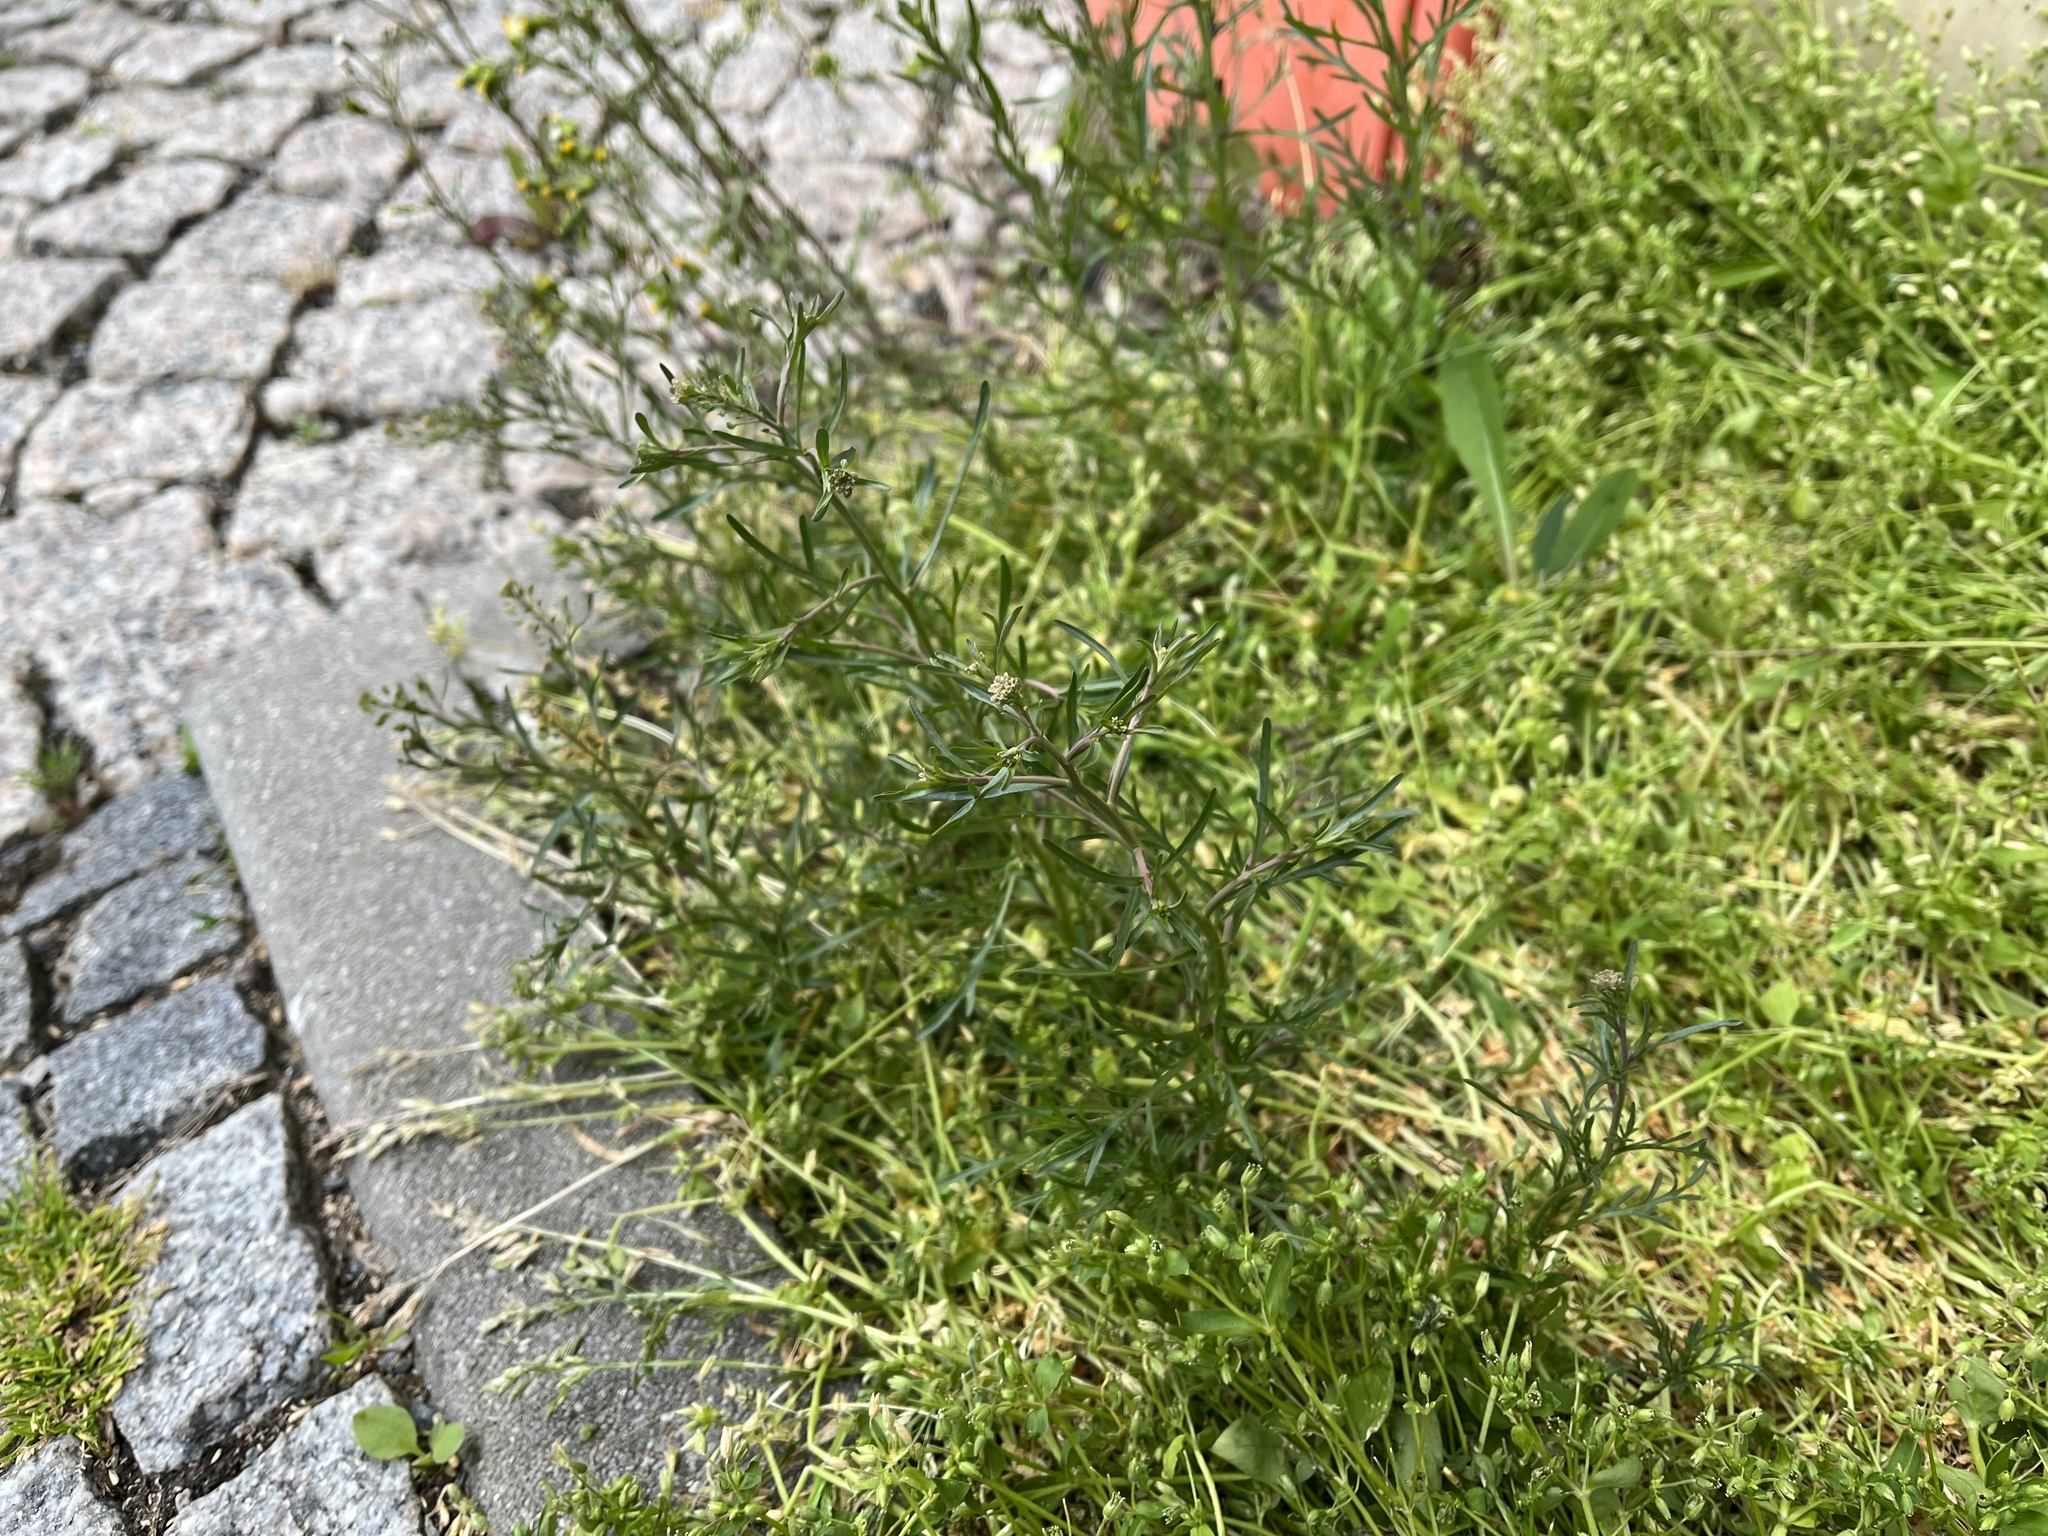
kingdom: Plantae
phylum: Tracheophyta
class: Magnoliopsida
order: Brassicales
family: Brassicaceae
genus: Lepidium
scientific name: Lepidium ruderale
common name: Narrow-leaved pepperwort
